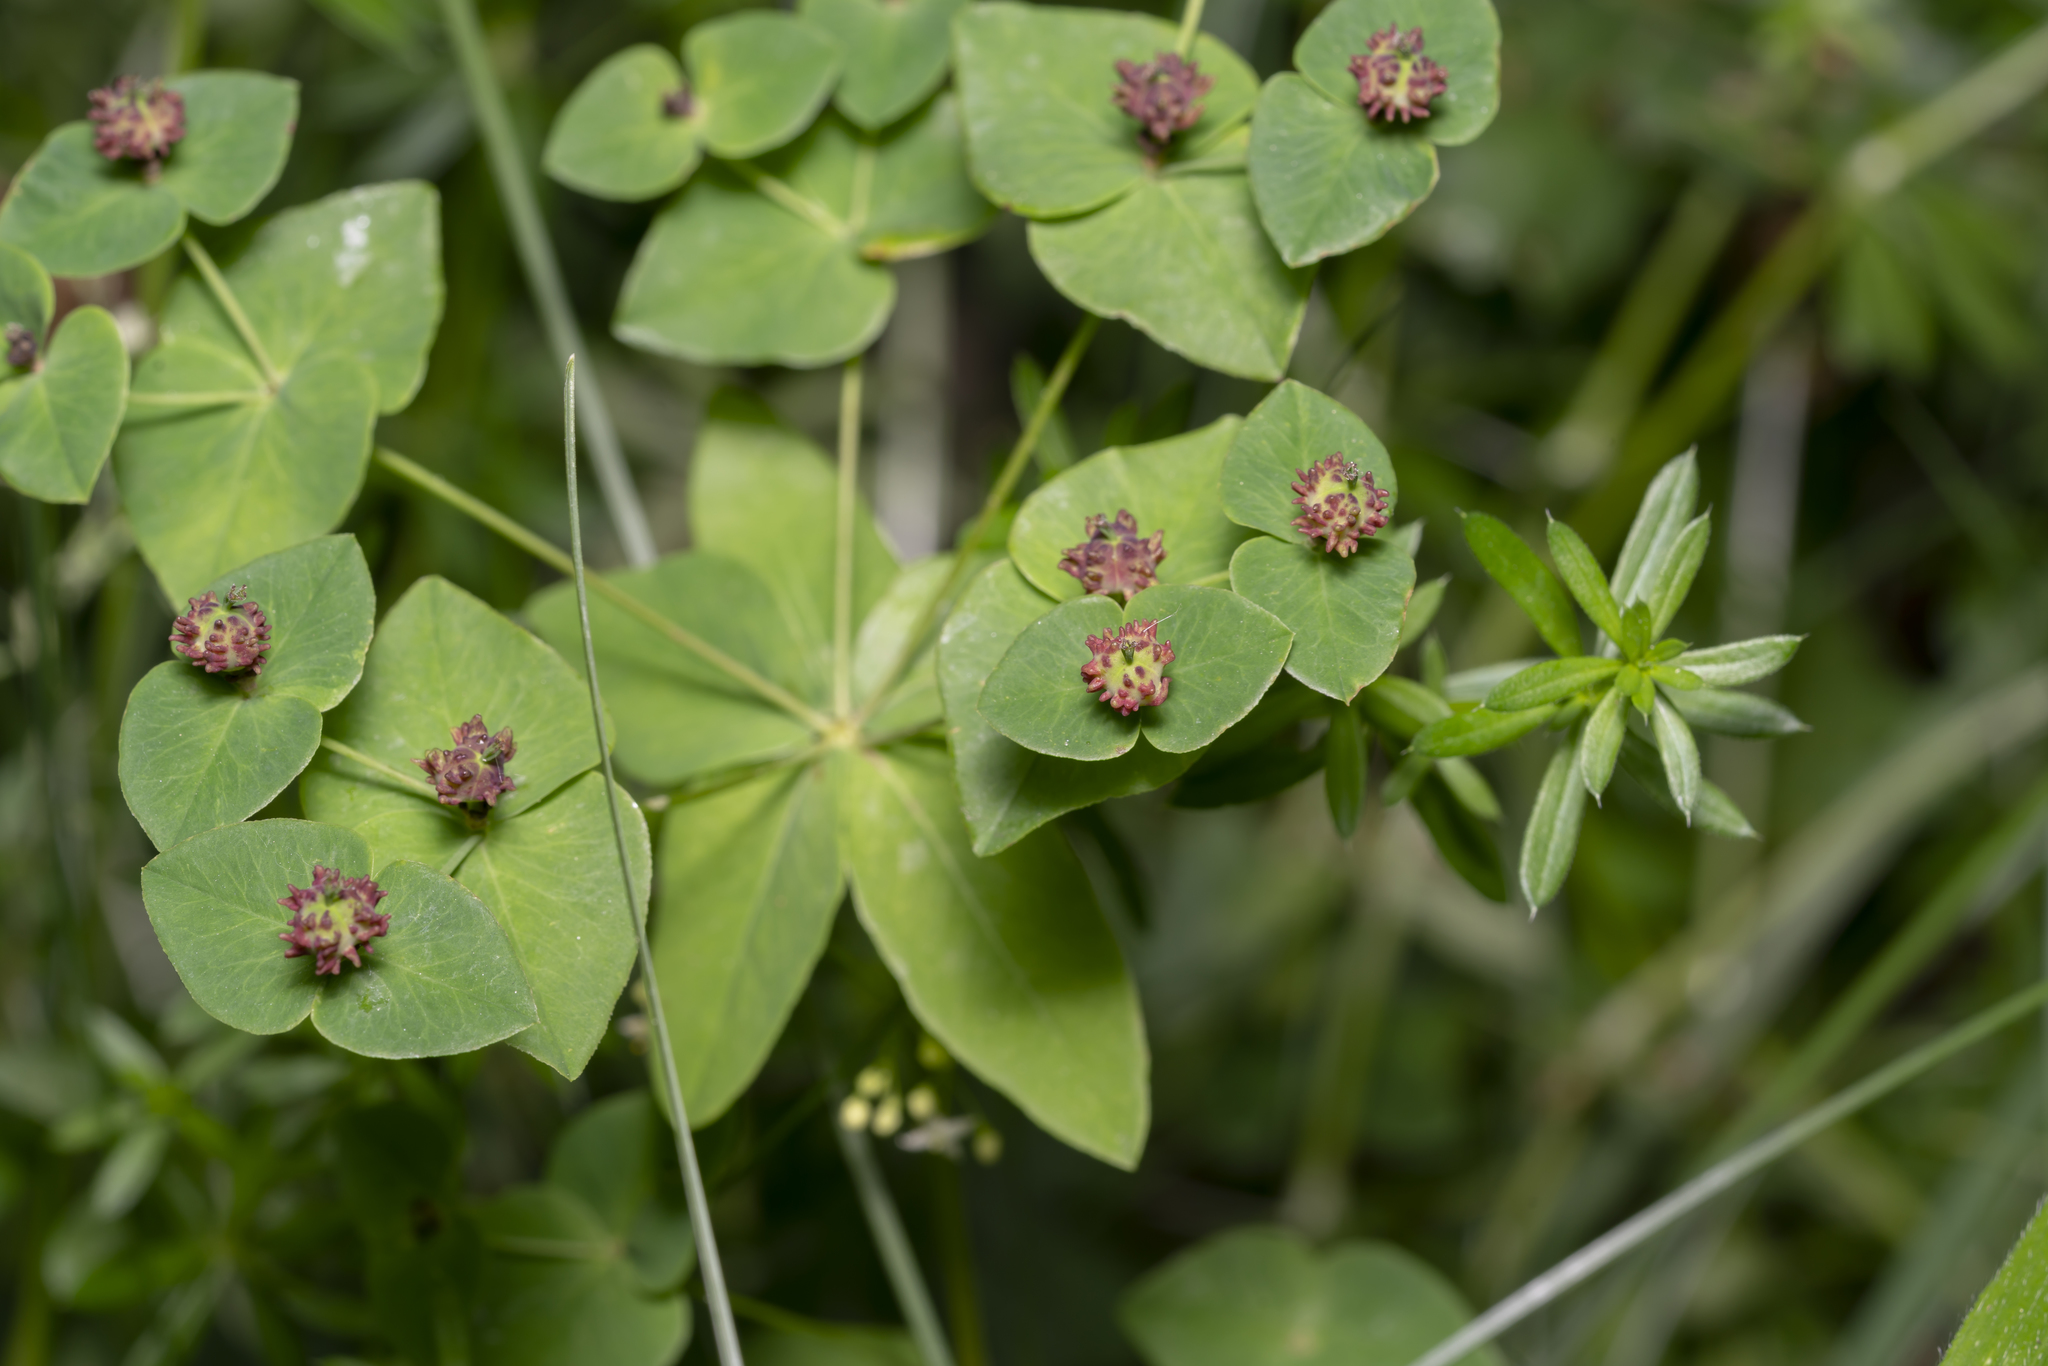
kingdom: Plantae
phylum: Tracheophyta
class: Magnoliopsida
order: Malpighiales
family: Euphorbiaceae
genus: Euphorbia
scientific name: Euphorbia dulcis
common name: Sweet spurge
